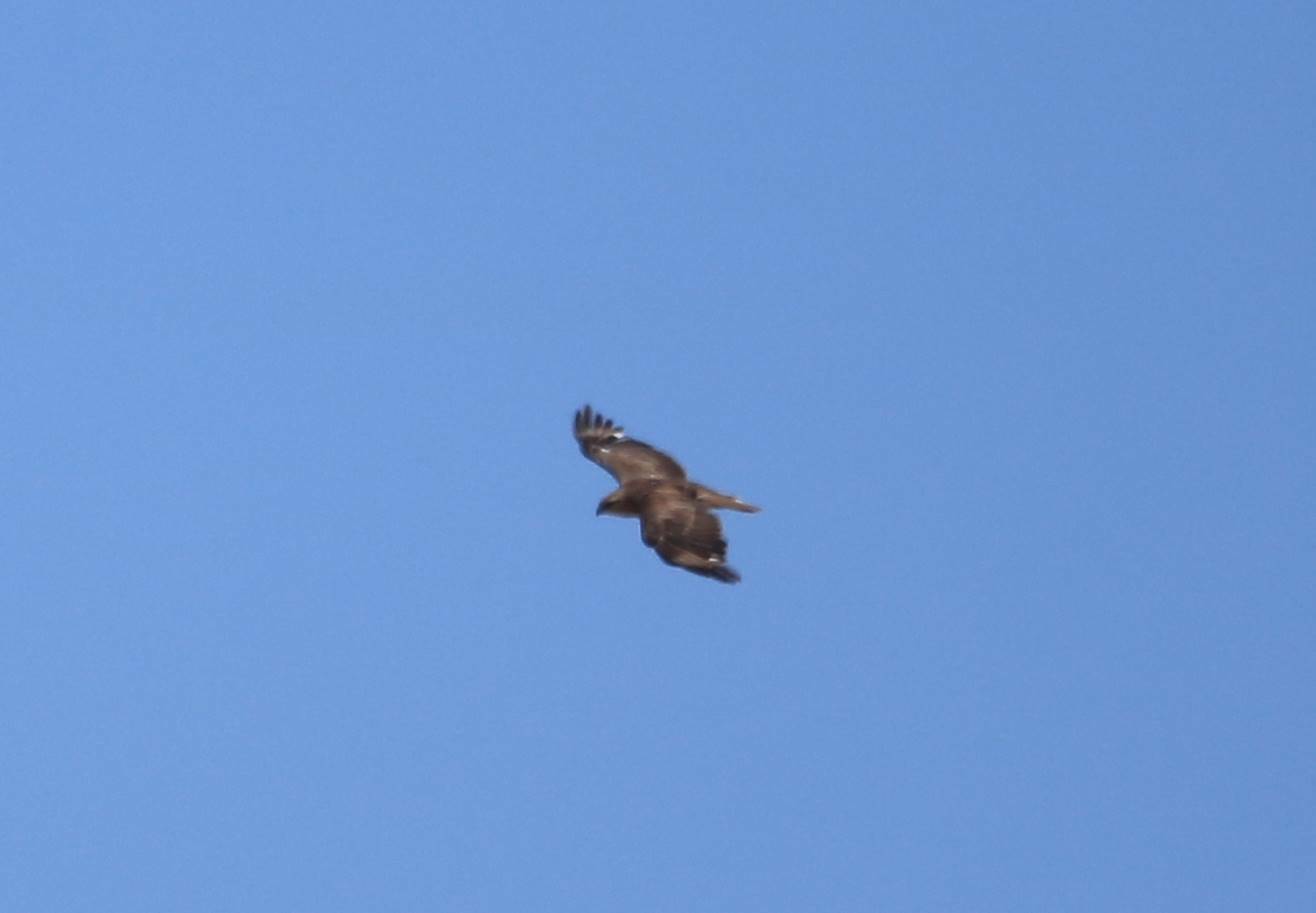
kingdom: Animalia
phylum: Chordata
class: Aves
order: Accipitriformes
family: Accipitridae
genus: Buteo
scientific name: Buteo rufinus
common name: Long-legged buzzard
